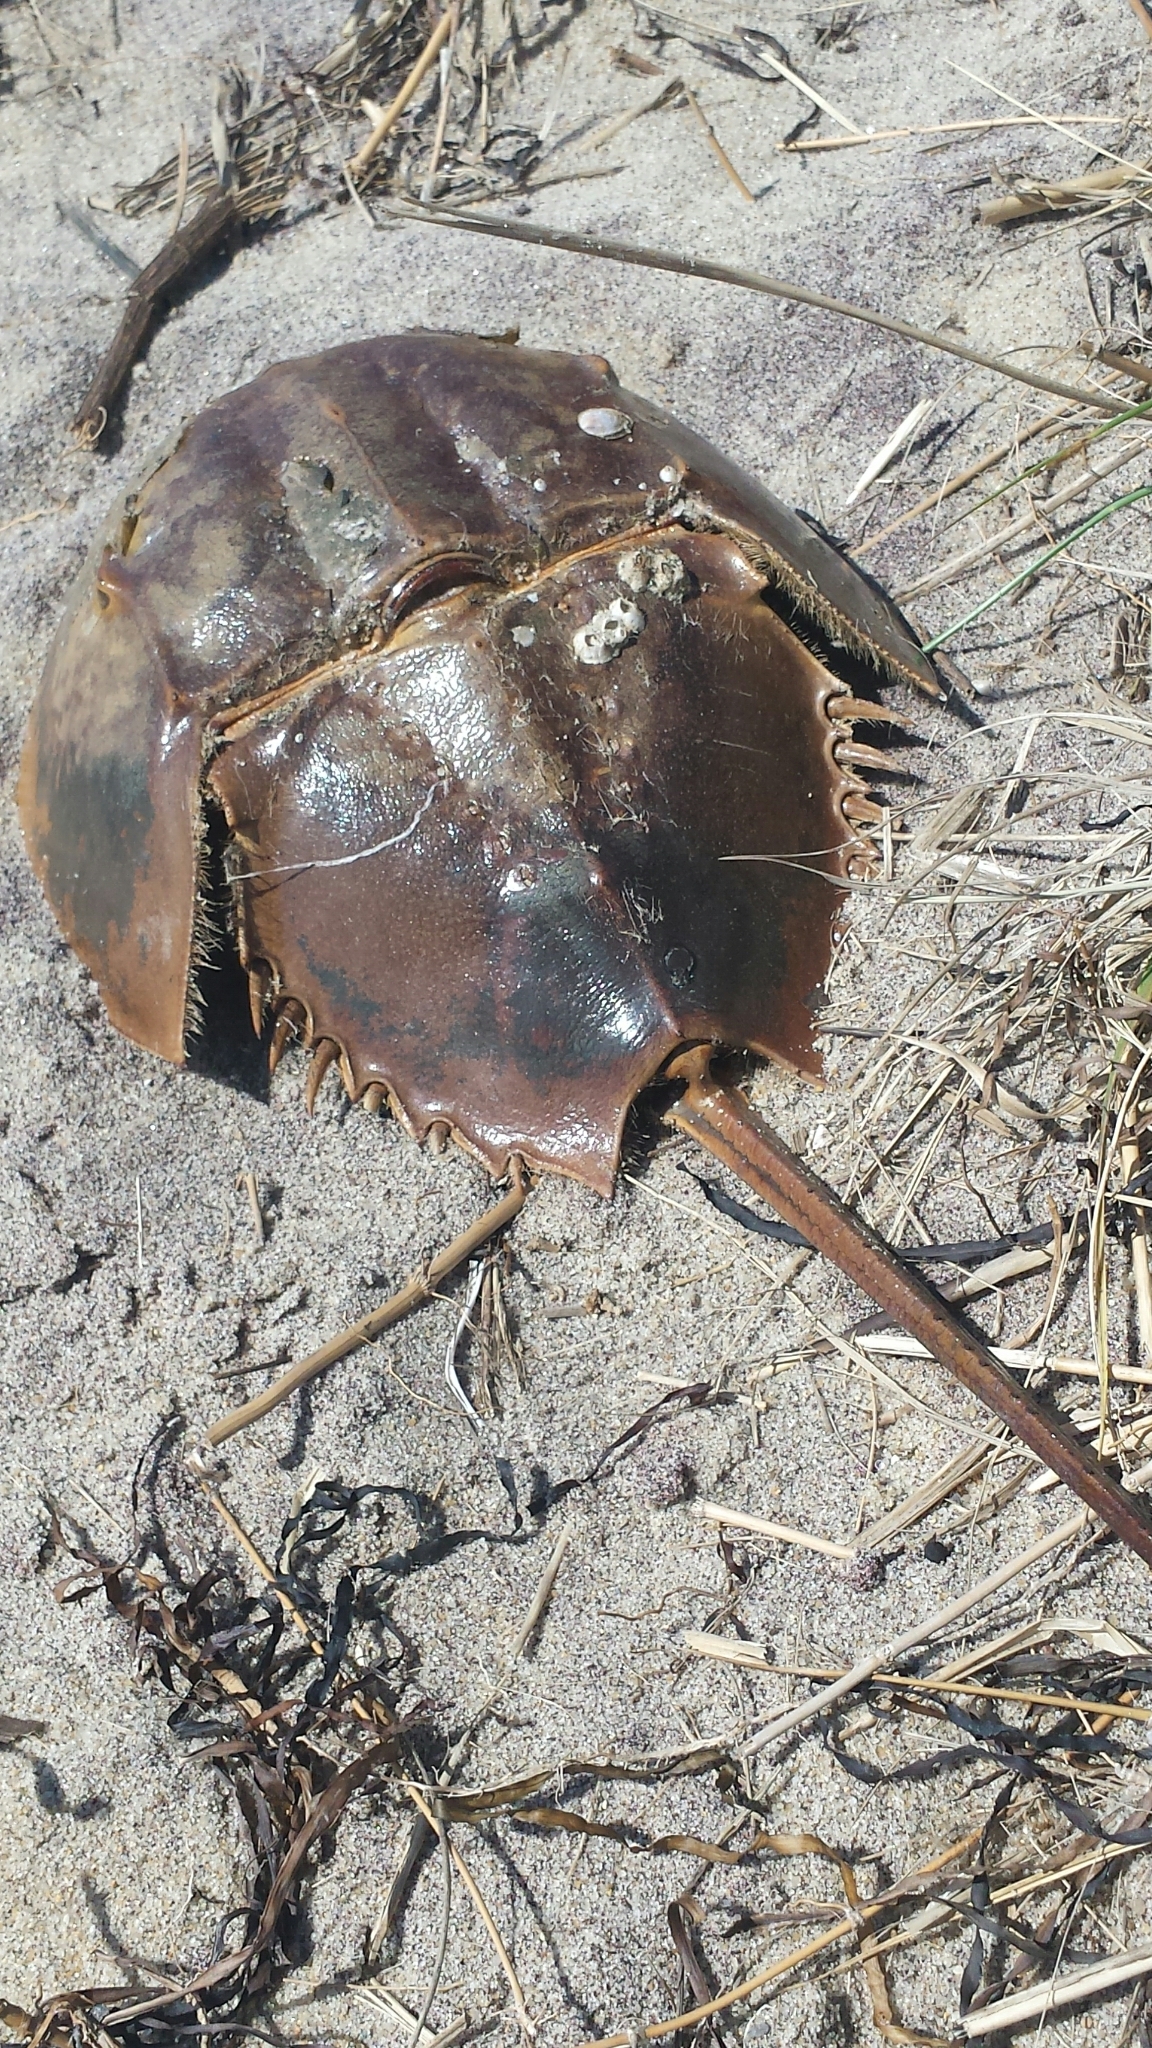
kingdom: Animalia
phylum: Arthropoda
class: Merostomata
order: Xiphosurida
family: Limulidae
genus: Limulus
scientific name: Limulus polyphemus
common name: Horseshoe crab
